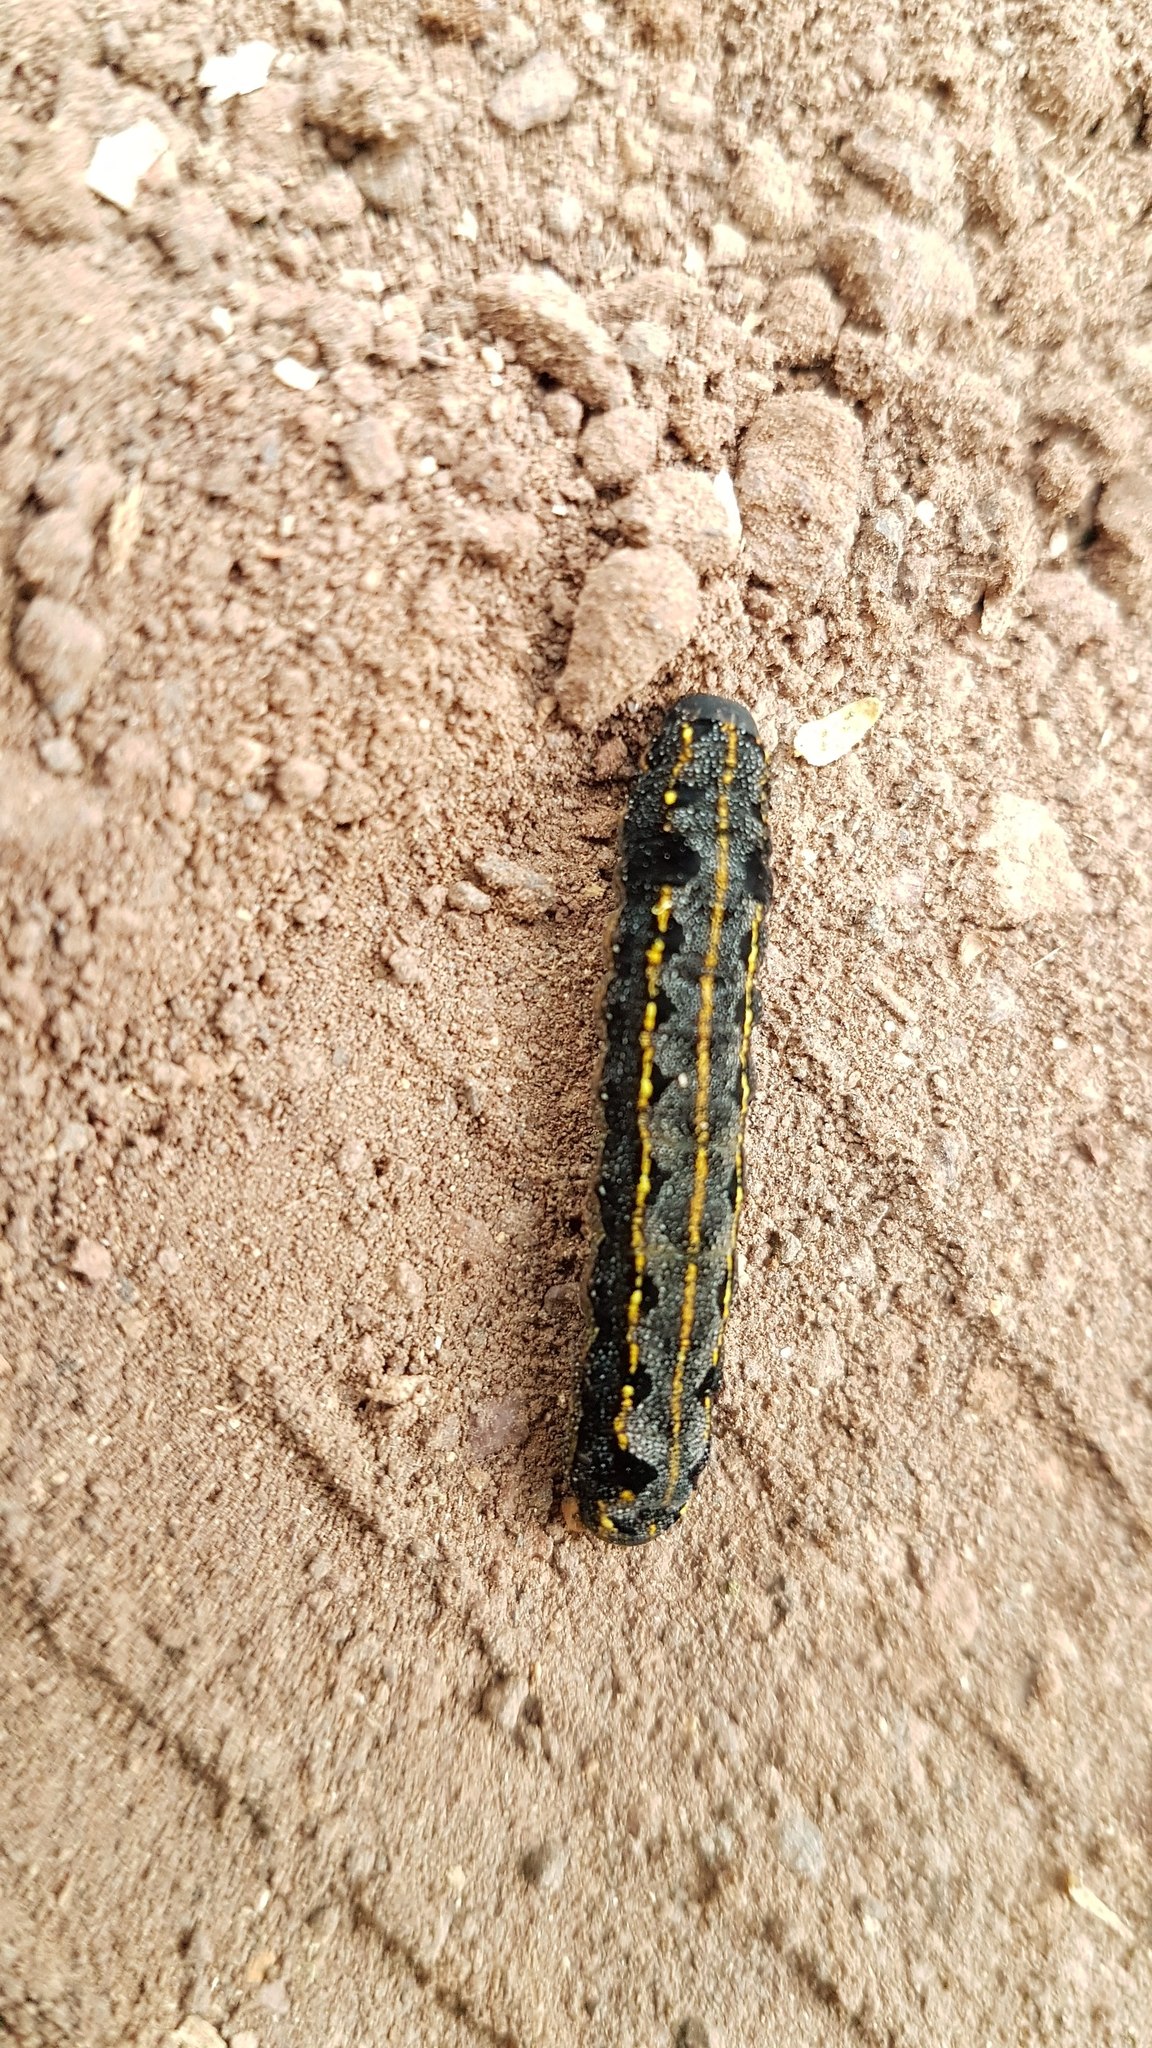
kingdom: Animalia
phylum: Arthropoda
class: Insecta
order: Lepidoptera
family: Noctuidae
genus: Spodoptera
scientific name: Spodoptera littoralis
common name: Egyptian cotton leafworm
